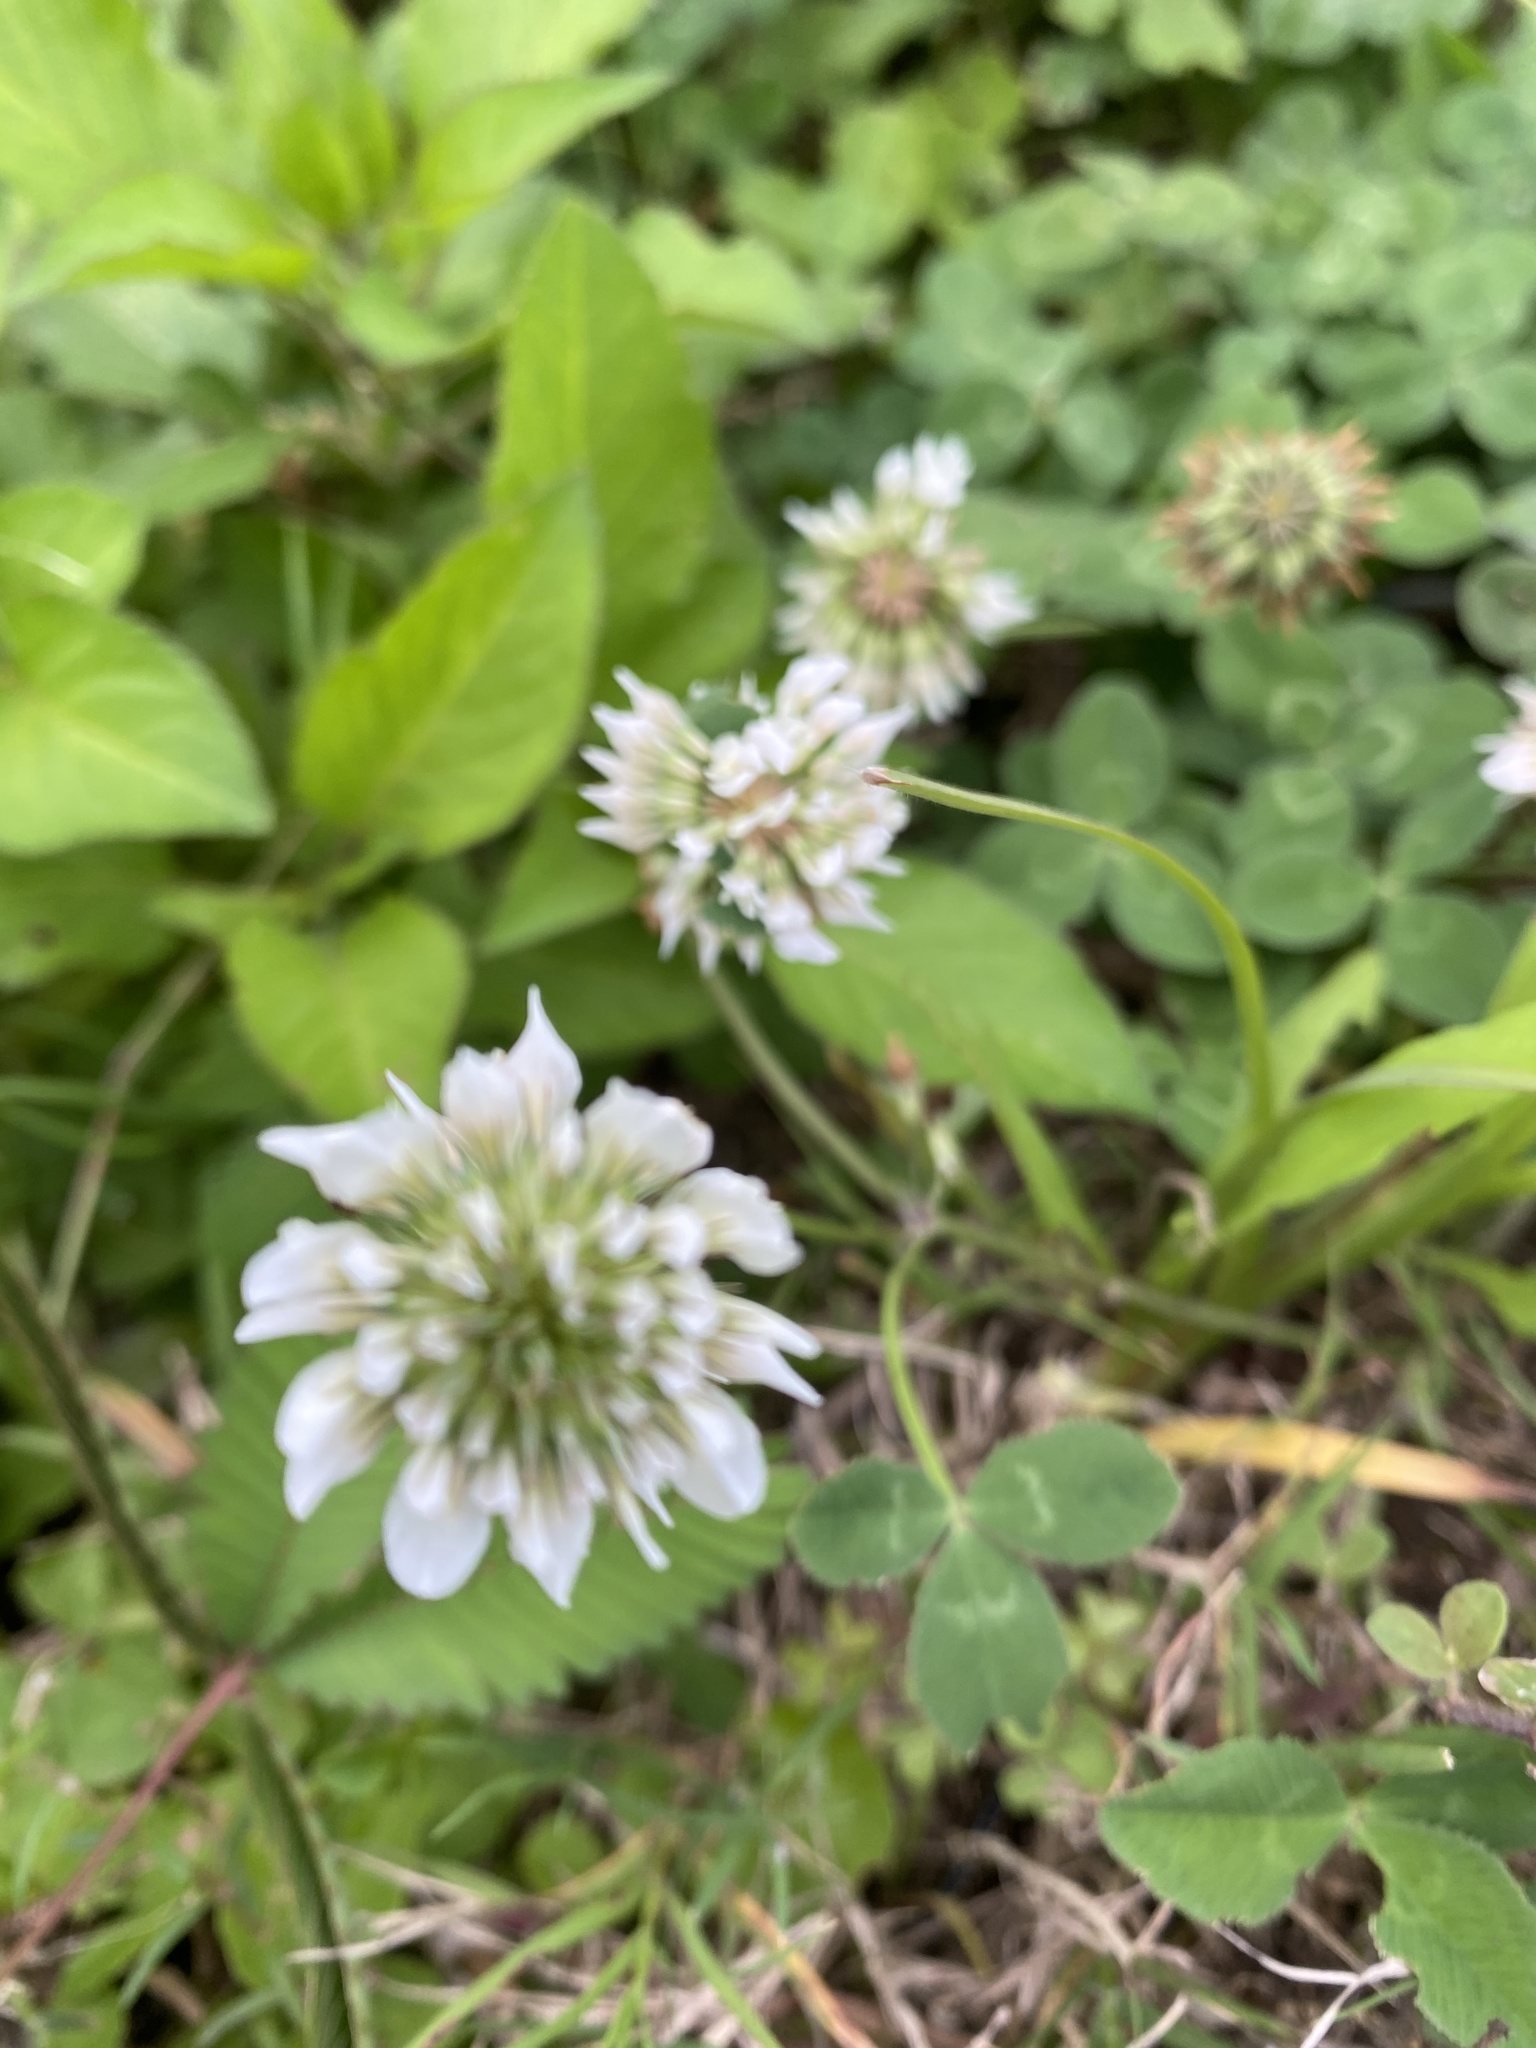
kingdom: Plantae
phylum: Tracheophyta
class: Magnoliopsida
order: Fabales
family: Fabaceae
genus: Trifolium
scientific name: Trifolium repens
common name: White clover
